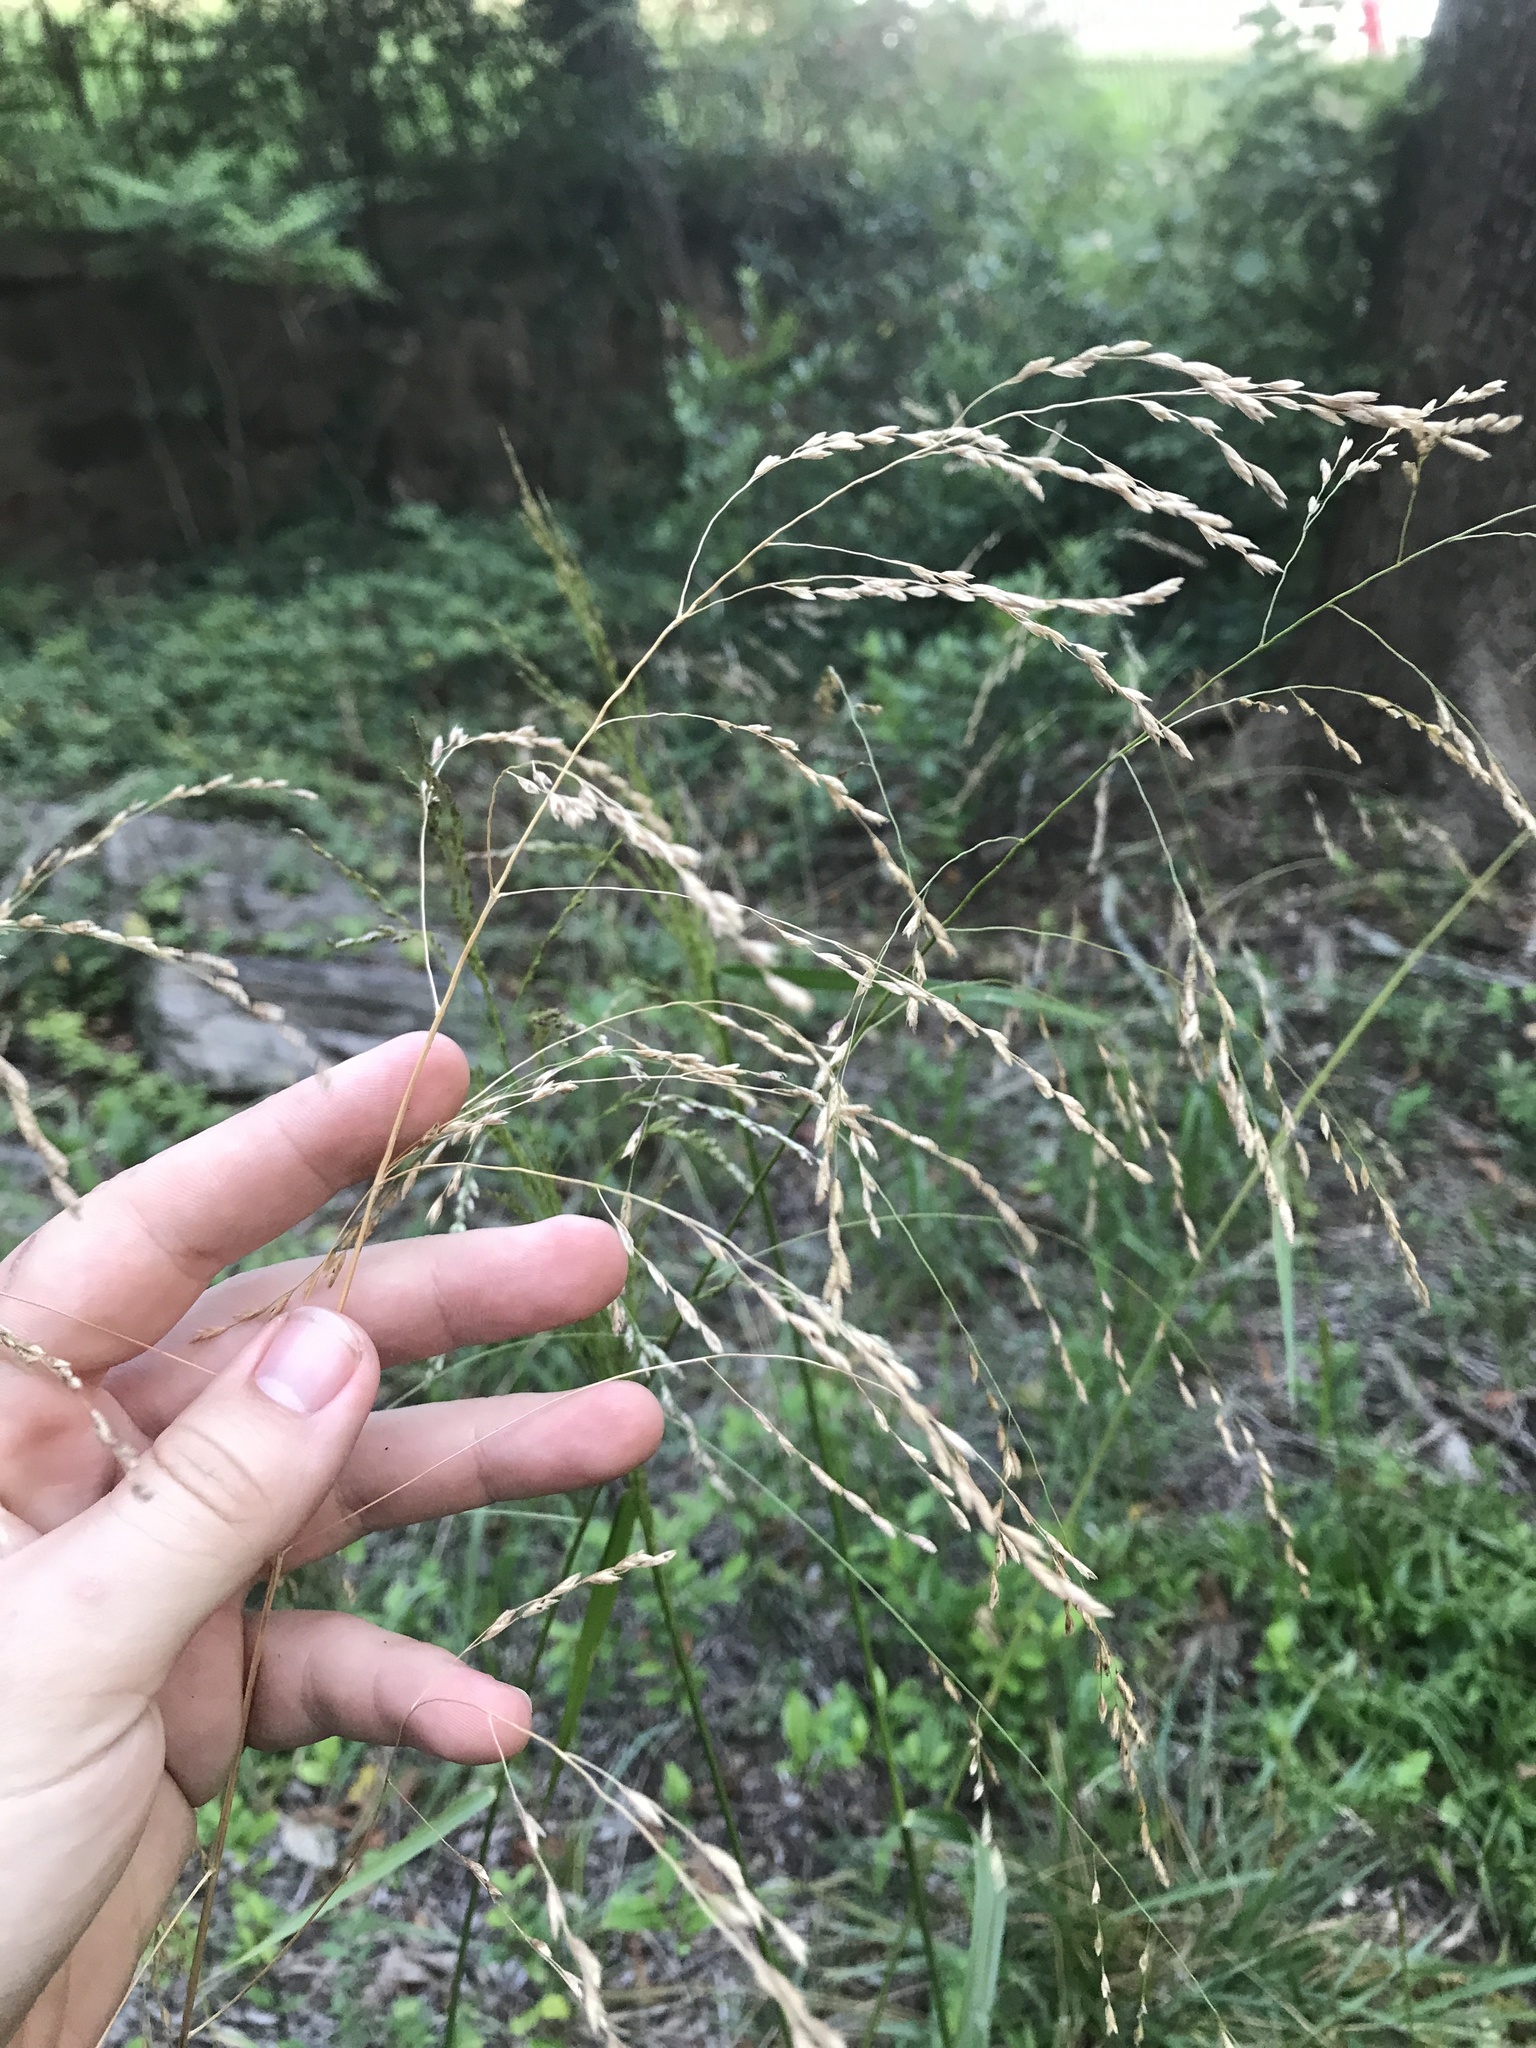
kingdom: Plantae
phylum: Tracheophyta
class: Liliopsida
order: Poales
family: Poaceae
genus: Tridens
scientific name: Tridens flavus
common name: Purpletop
